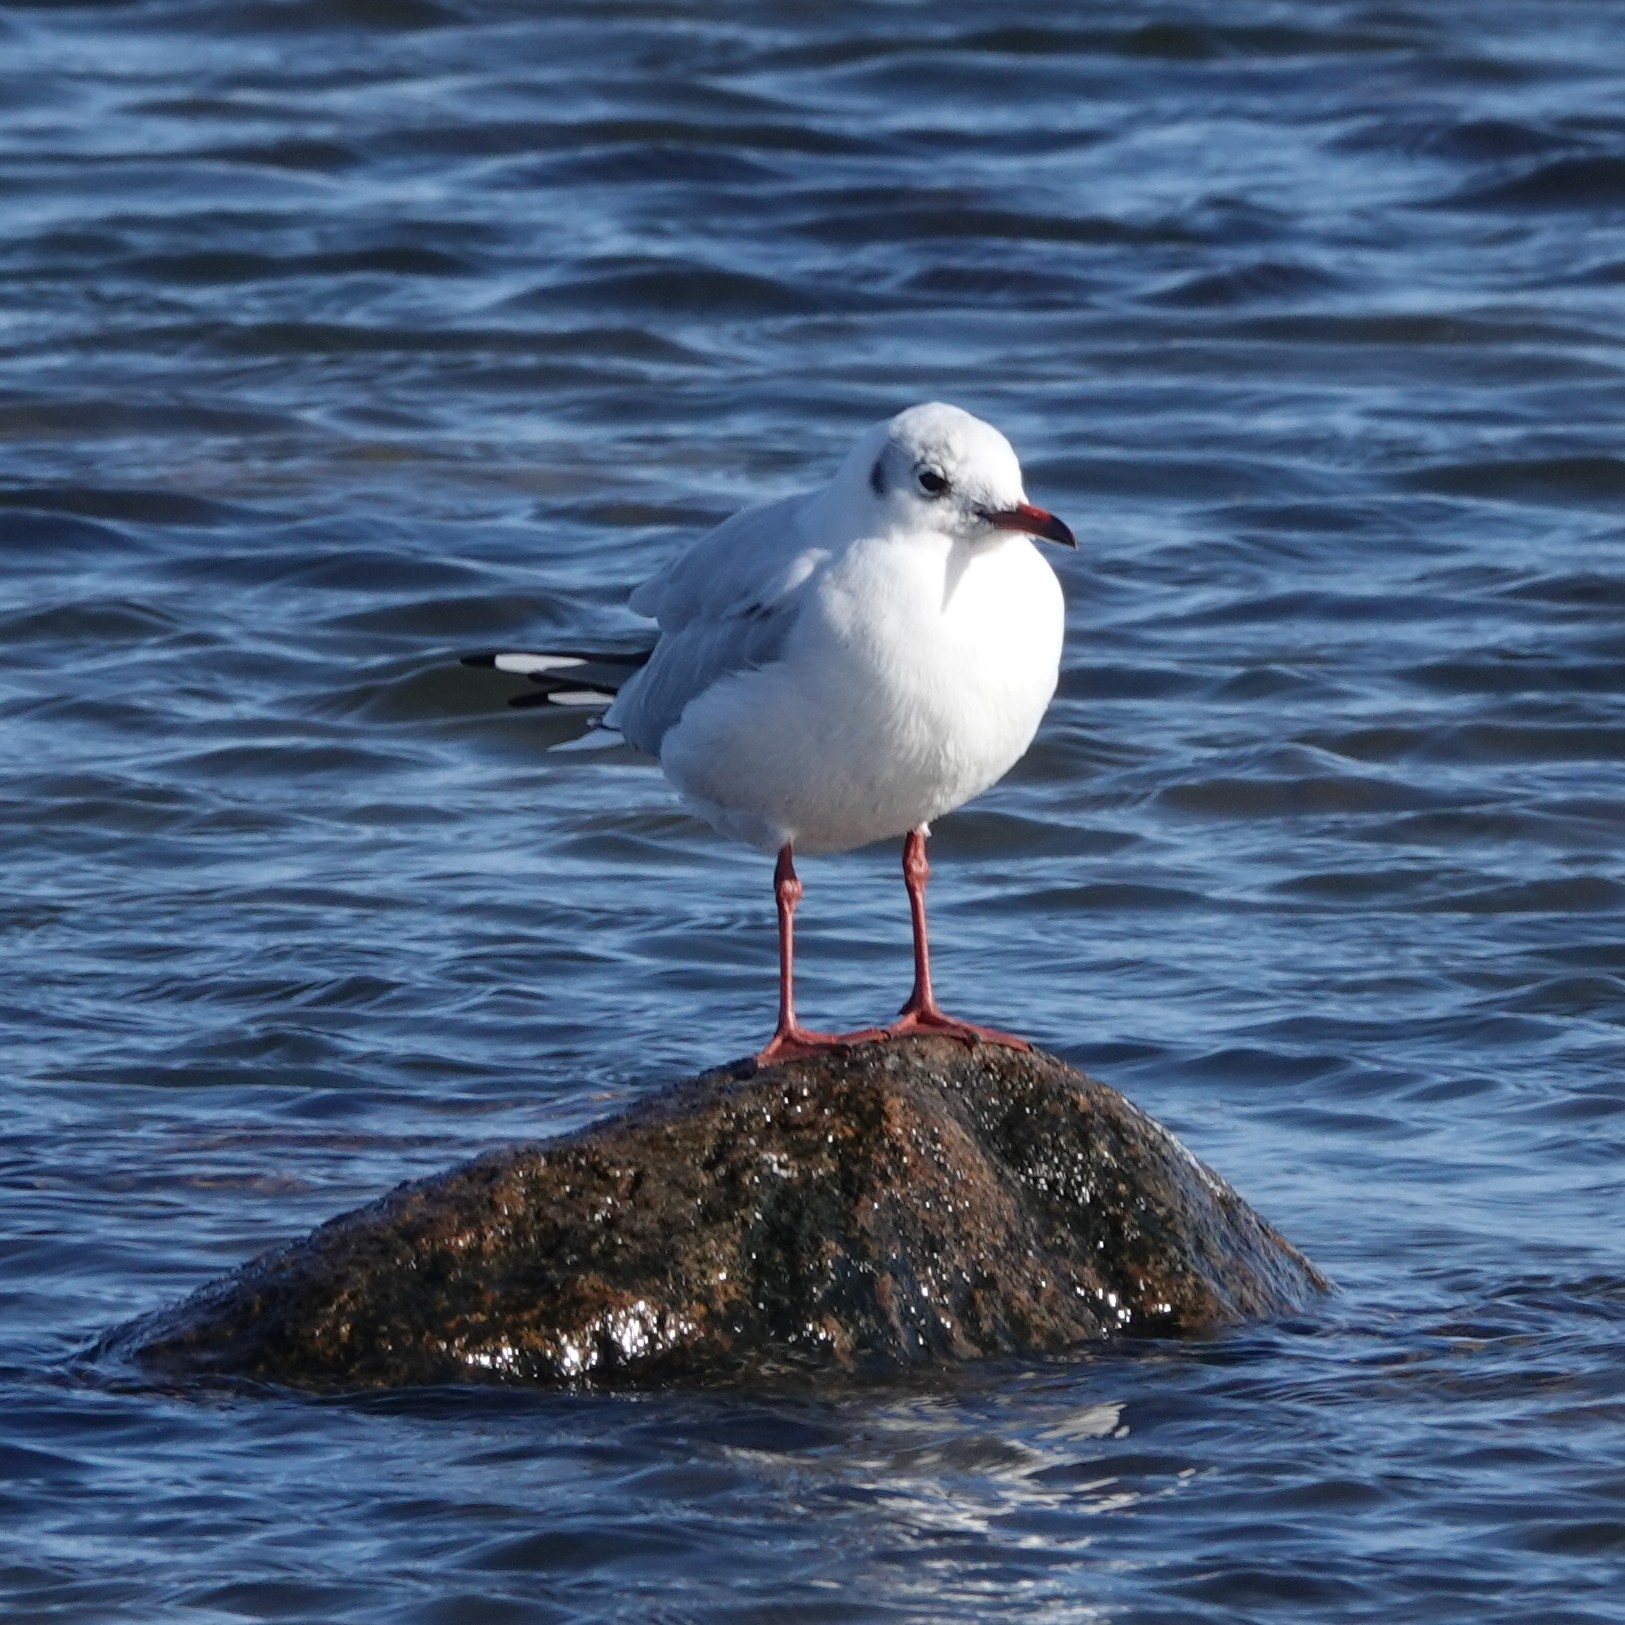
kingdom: Animalia
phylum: Chordata
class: Aves
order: Charadriiformes
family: Laridae
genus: Chroicocephalus
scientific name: Chroicocephalus ridibundus
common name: Black-headed gull
